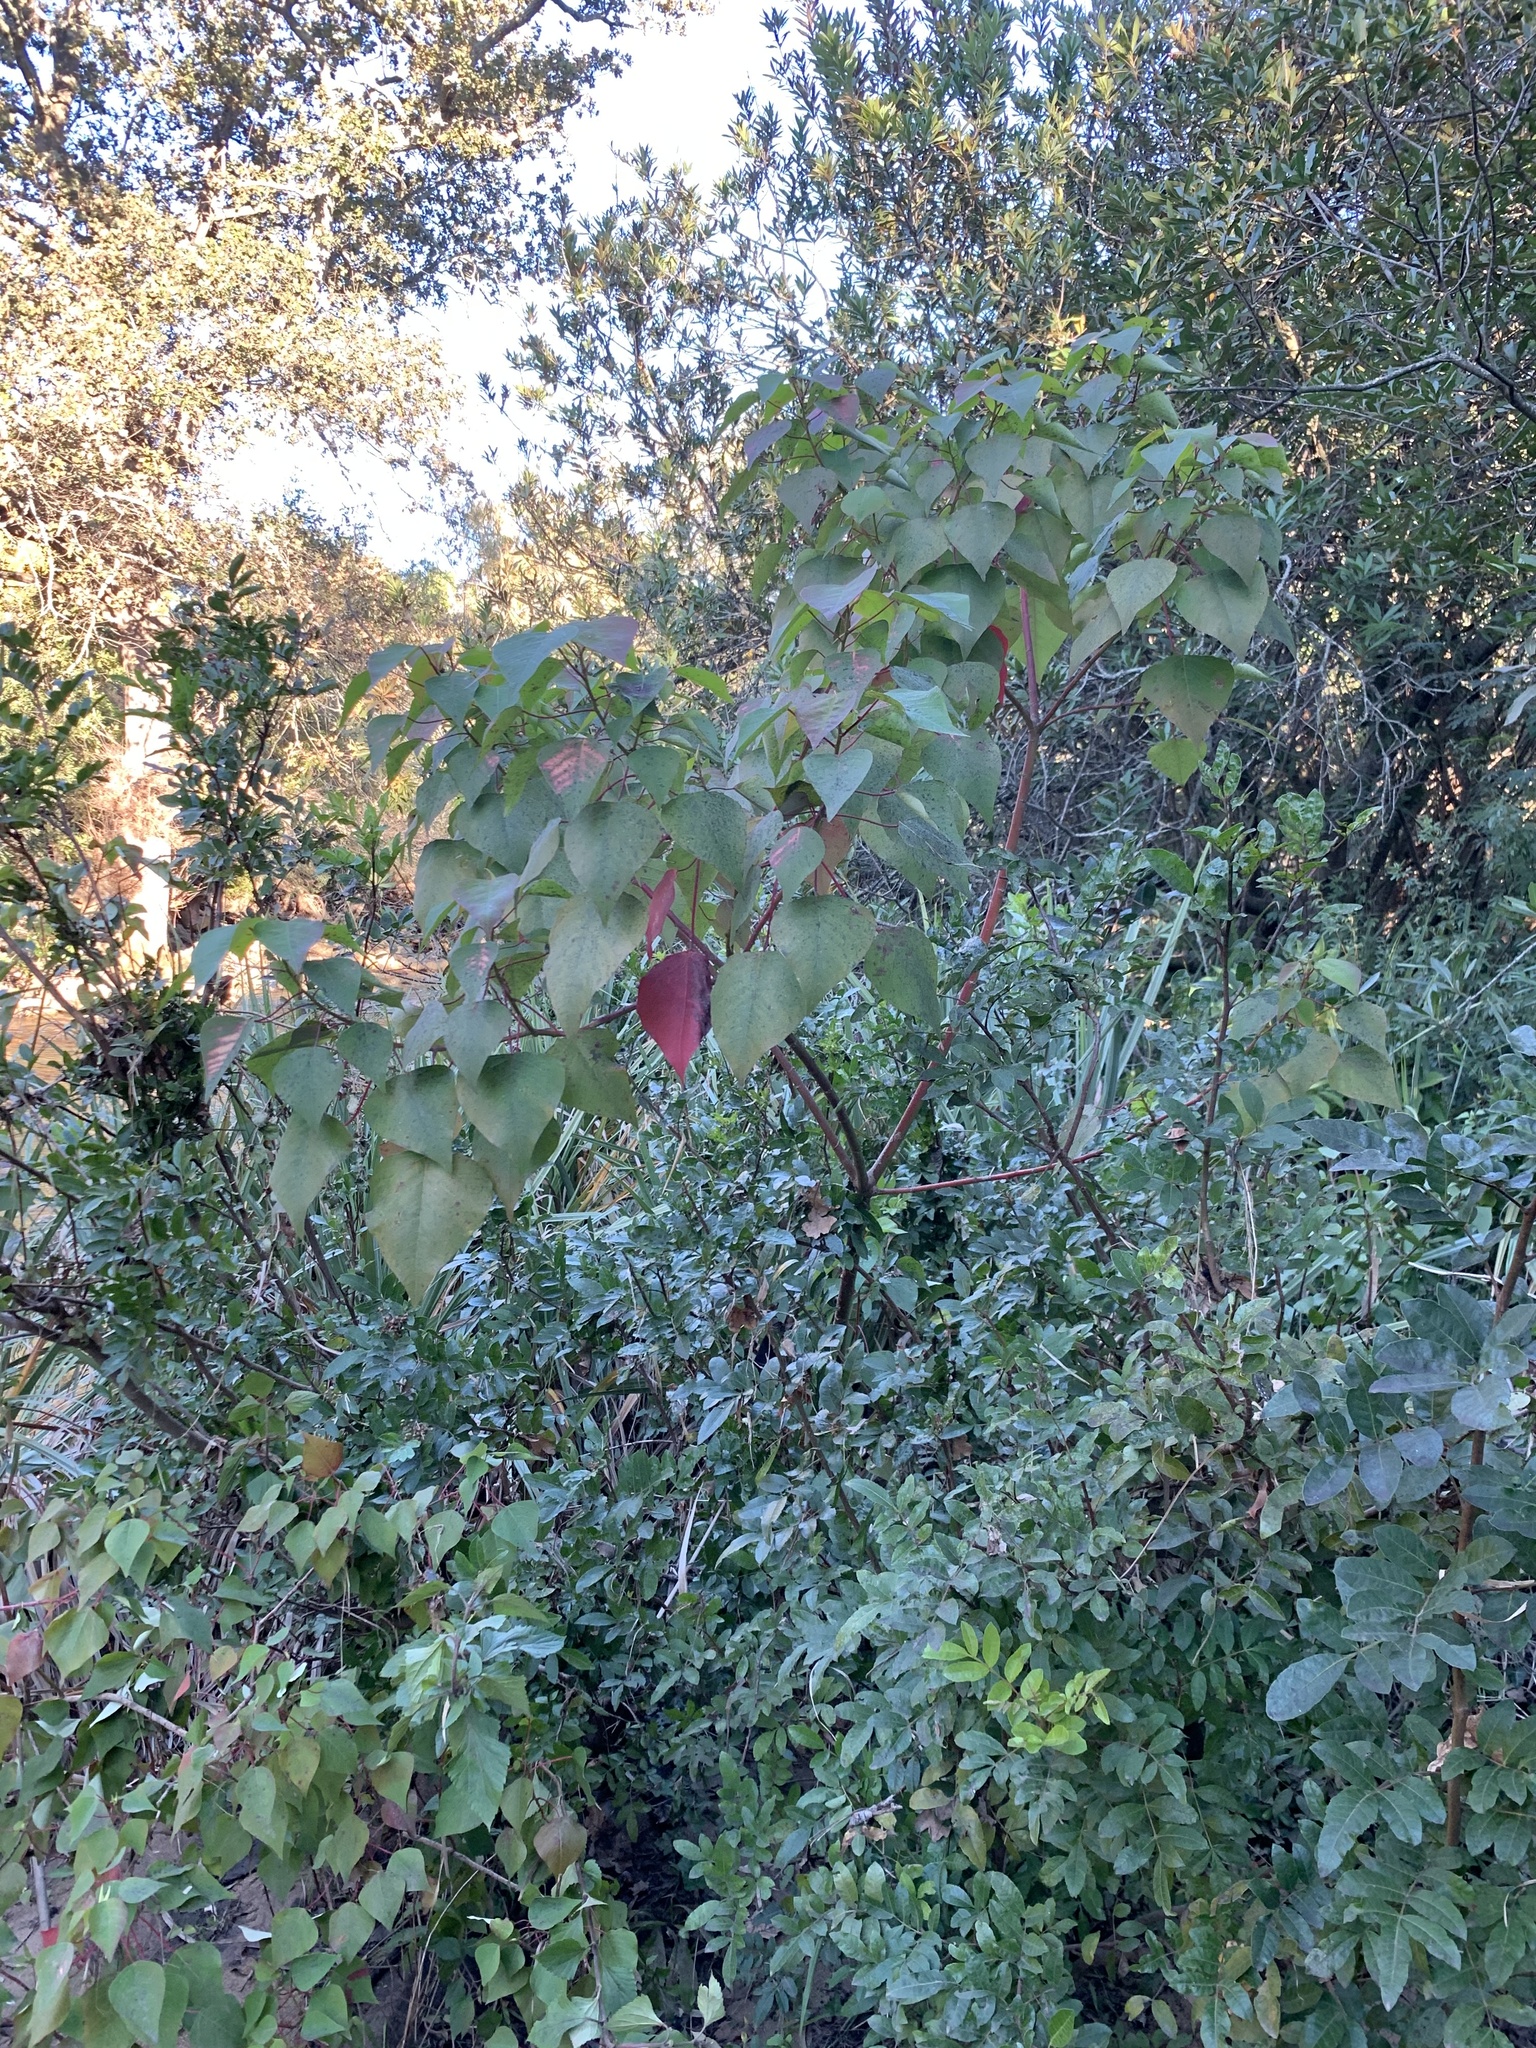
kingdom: Plantae
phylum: Tracheophyta
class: Magnoliopsida
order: Malpighiales
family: Euphorbiaceae
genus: Homalanthus
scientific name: Homalanthus populifolius
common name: Queensland poplar
